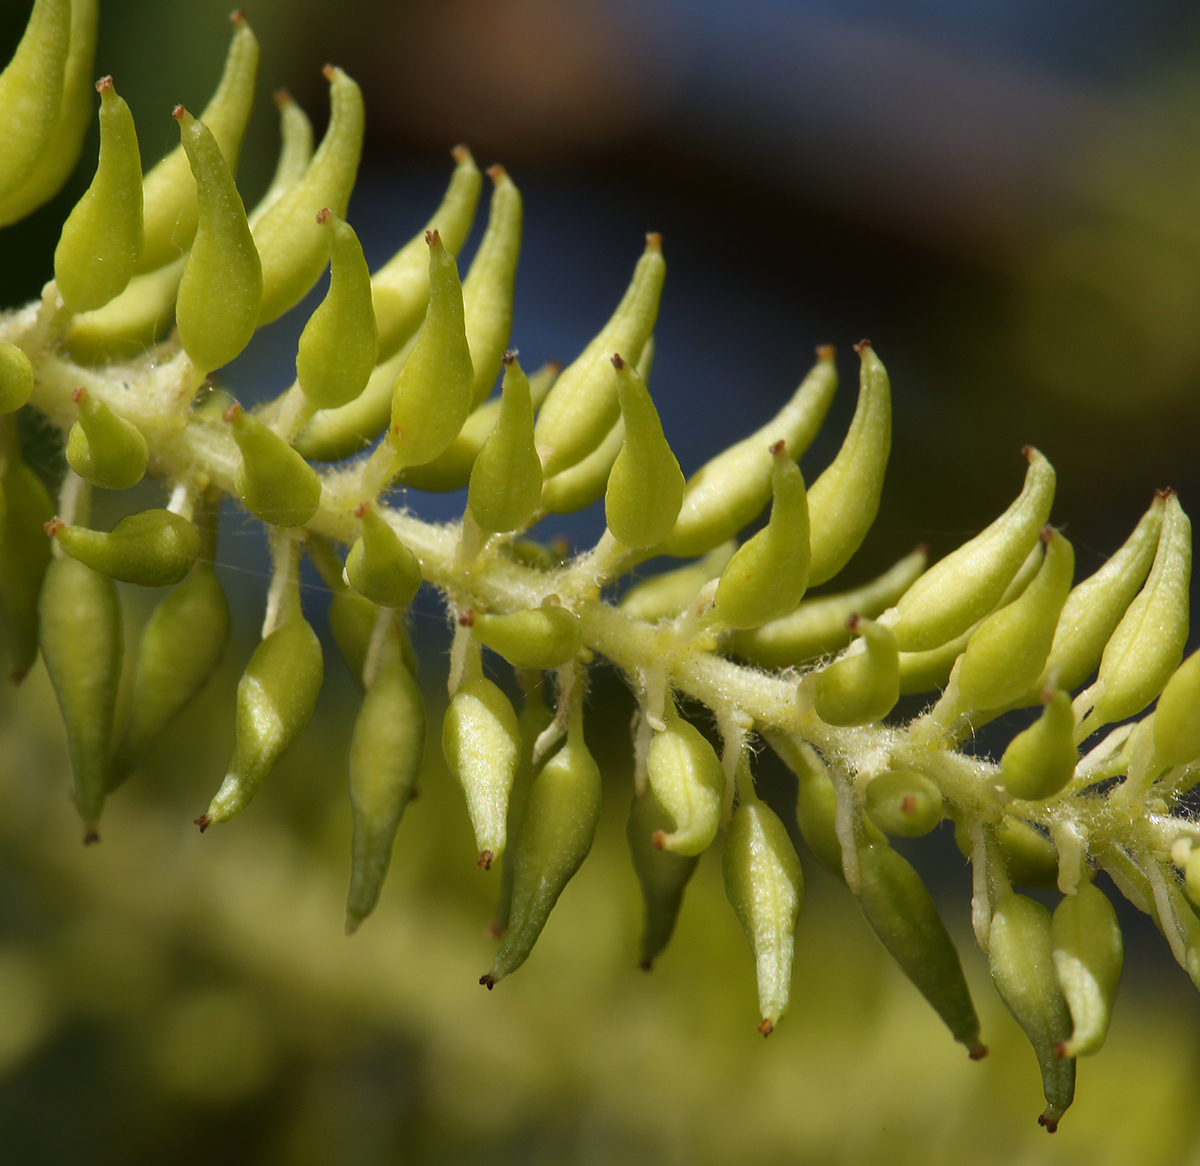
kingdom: Plantae
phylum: Tracheophyta
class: Magnoliopsida
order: Malpighiales
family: Salicaceae
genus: Salix
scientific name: Salix lasiolepis
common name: Arroyo willow
